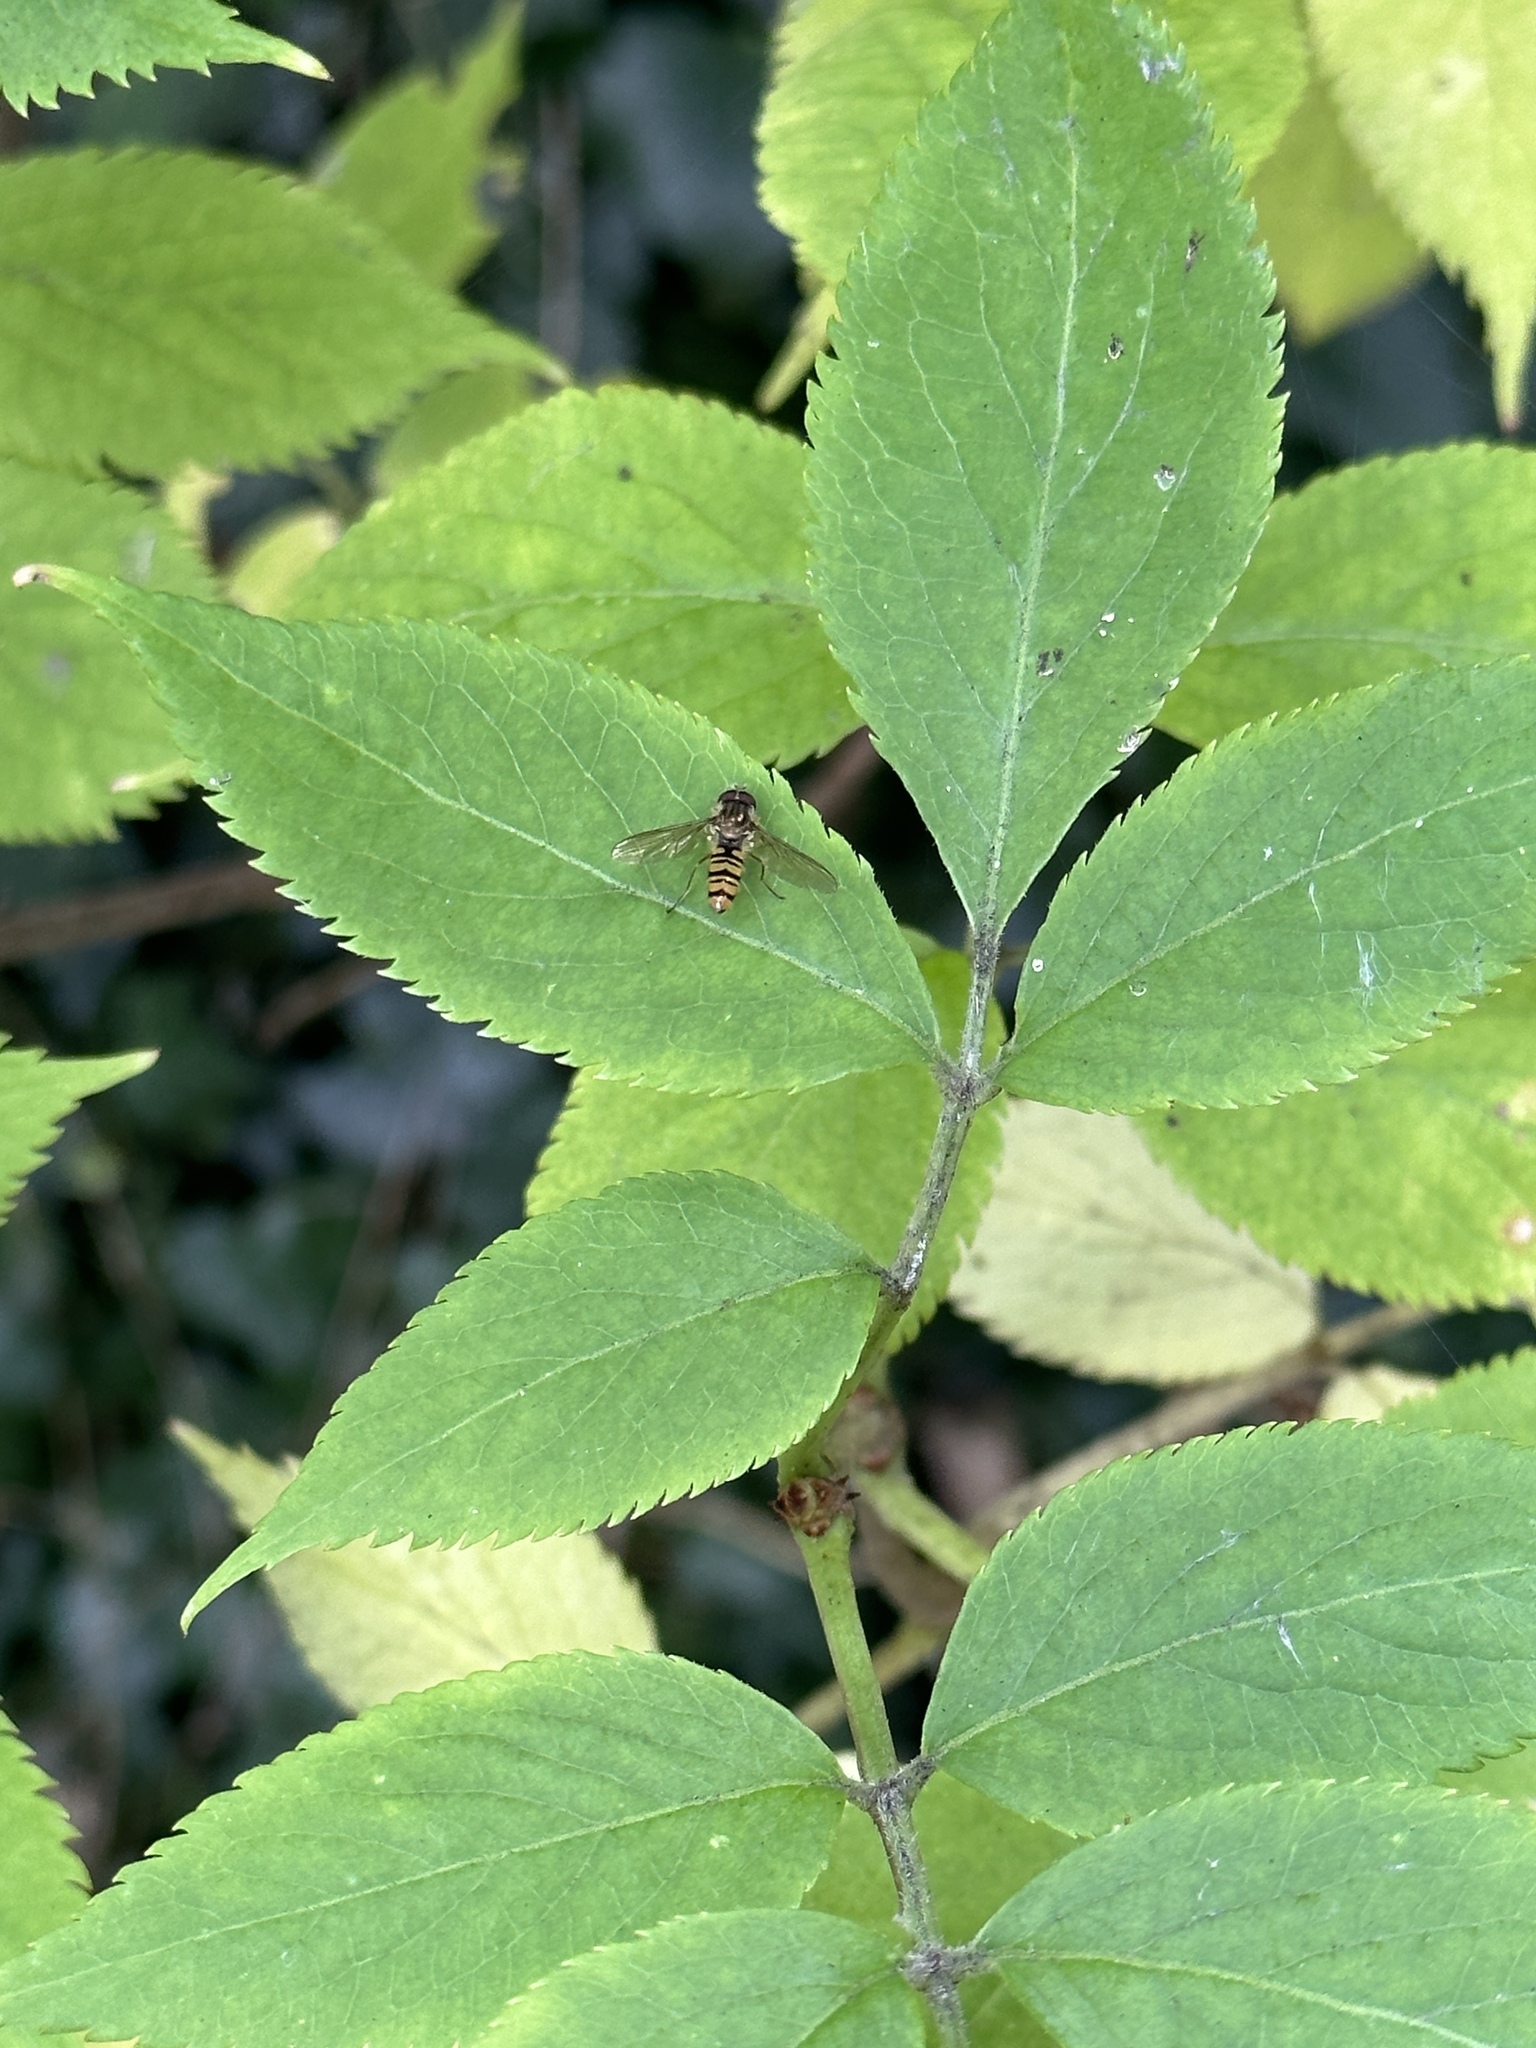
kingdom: Animalia
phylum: Arthropoda
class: Insecta
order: Diptera
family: Syrphidae
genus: Episyrphus
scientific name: Episyrphus balteatus
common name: Marmalade hoverfly
